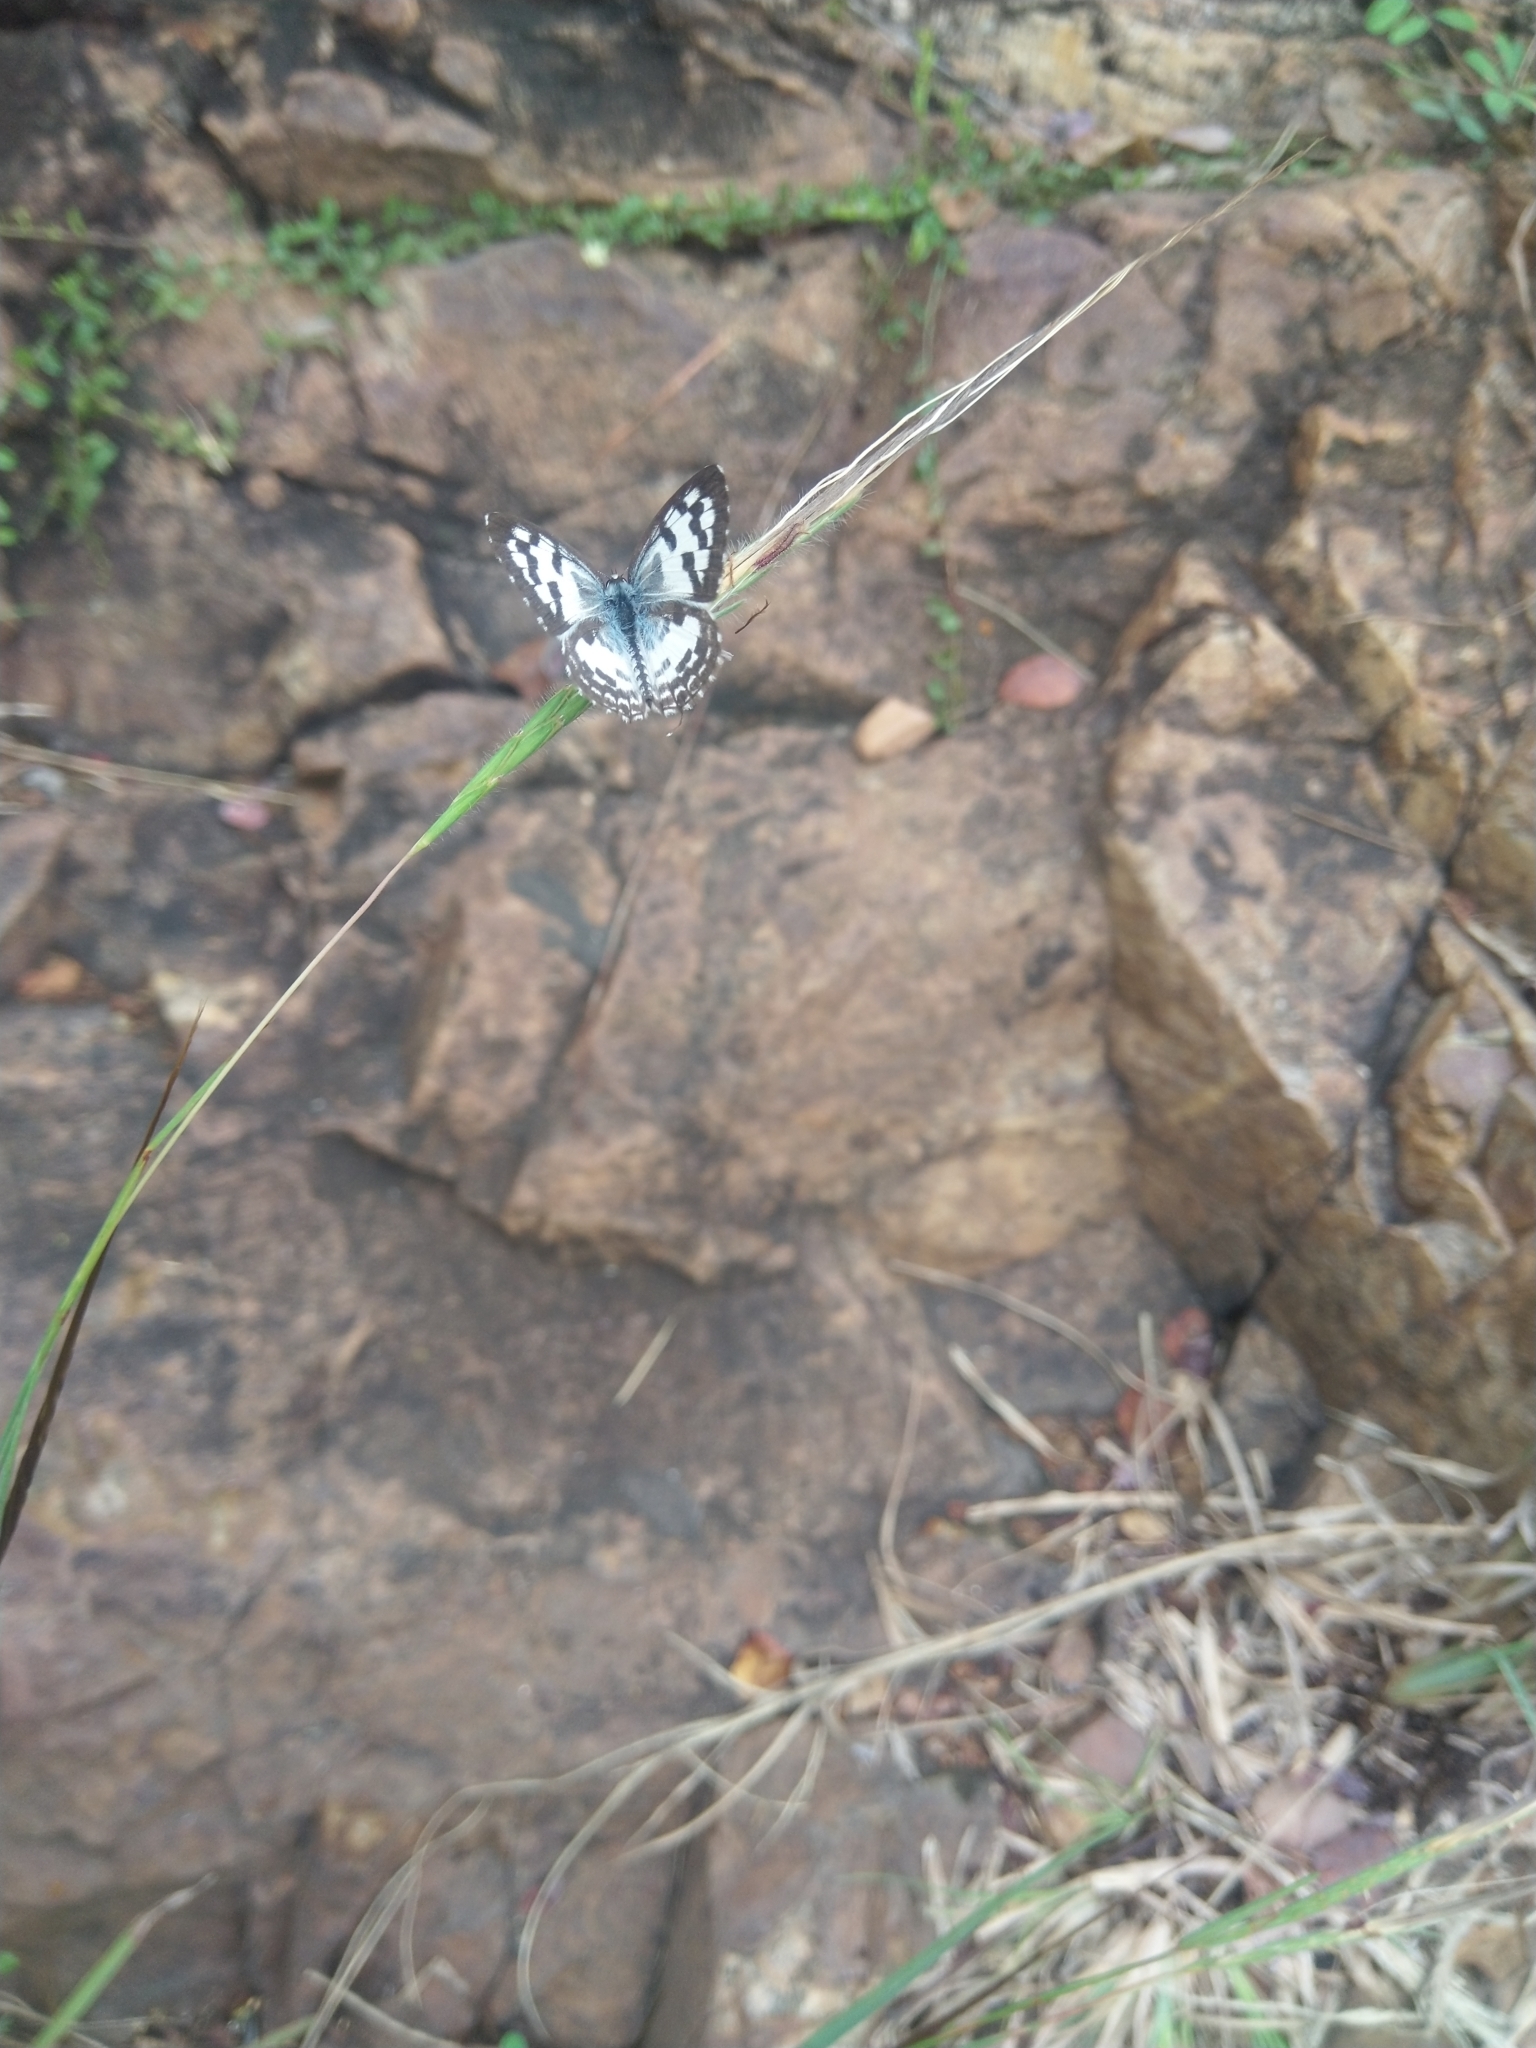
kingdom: Animalia
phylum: Arthropoda
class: Insecta
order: Lepidoptera
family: Lycaenidae
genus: Castalius
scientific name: Castalius rosimon
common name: Common pierrot
